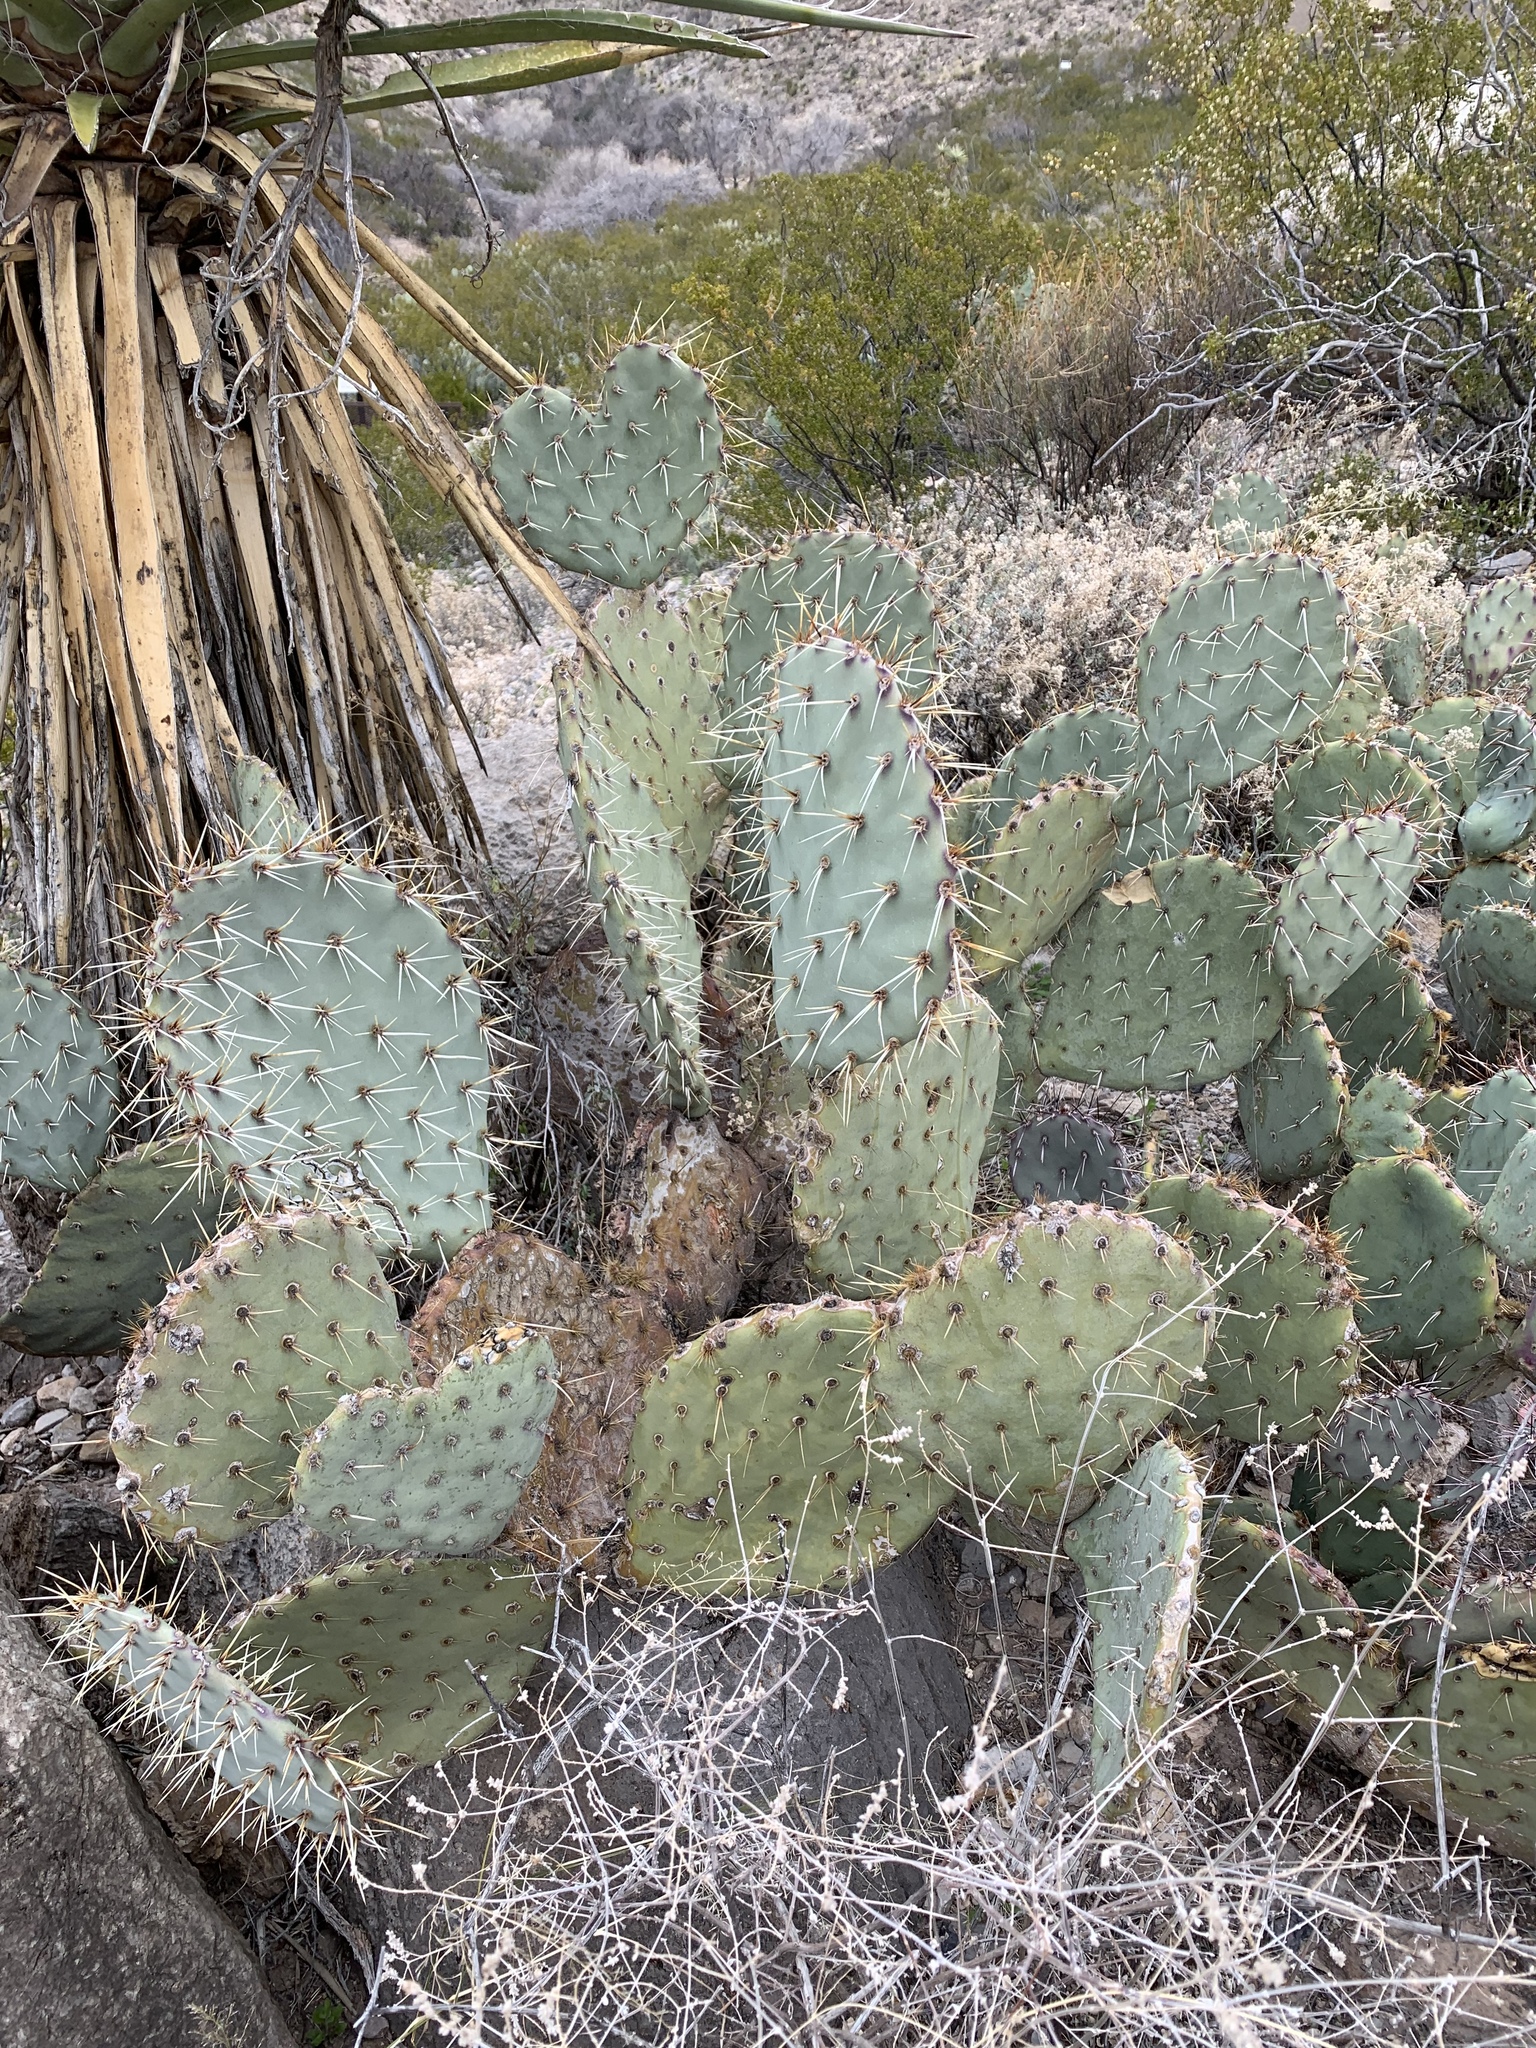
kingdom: Plantae
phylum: Tracheophyta
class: Magnoliopsida
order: Caryophyllales
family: Cactaceae
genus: Opuntia
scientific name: Opuntia engelmannii
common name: Cactus-apple
